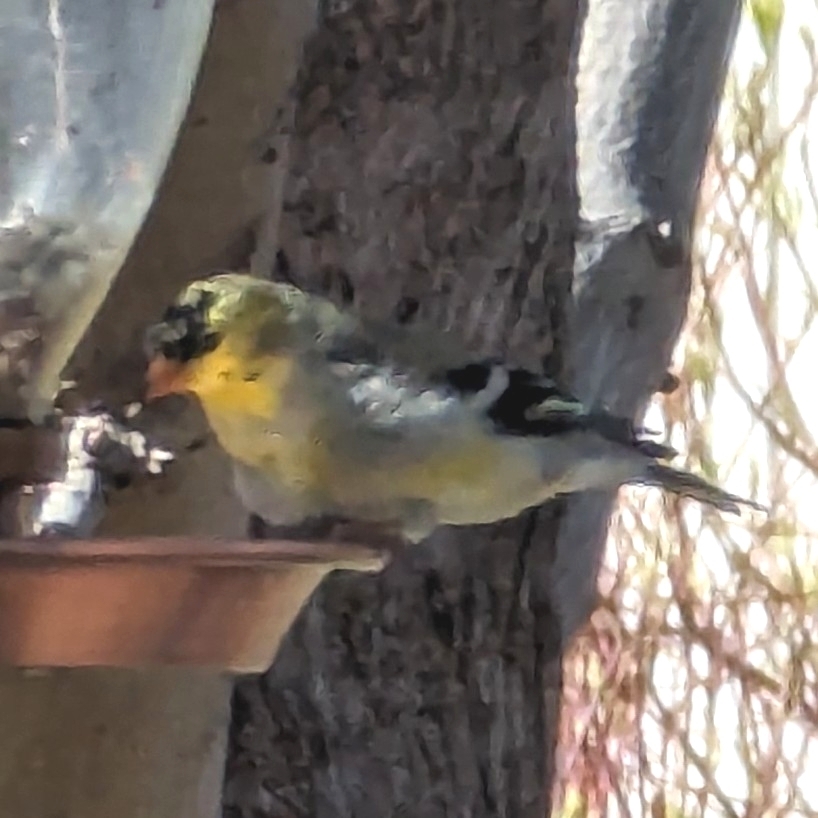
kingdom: Animalia
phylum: Chordata
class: Aves
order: Passeriformes
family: Fringillidae
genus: Spinus
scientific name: Spinus tristis
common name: American goldfinch
